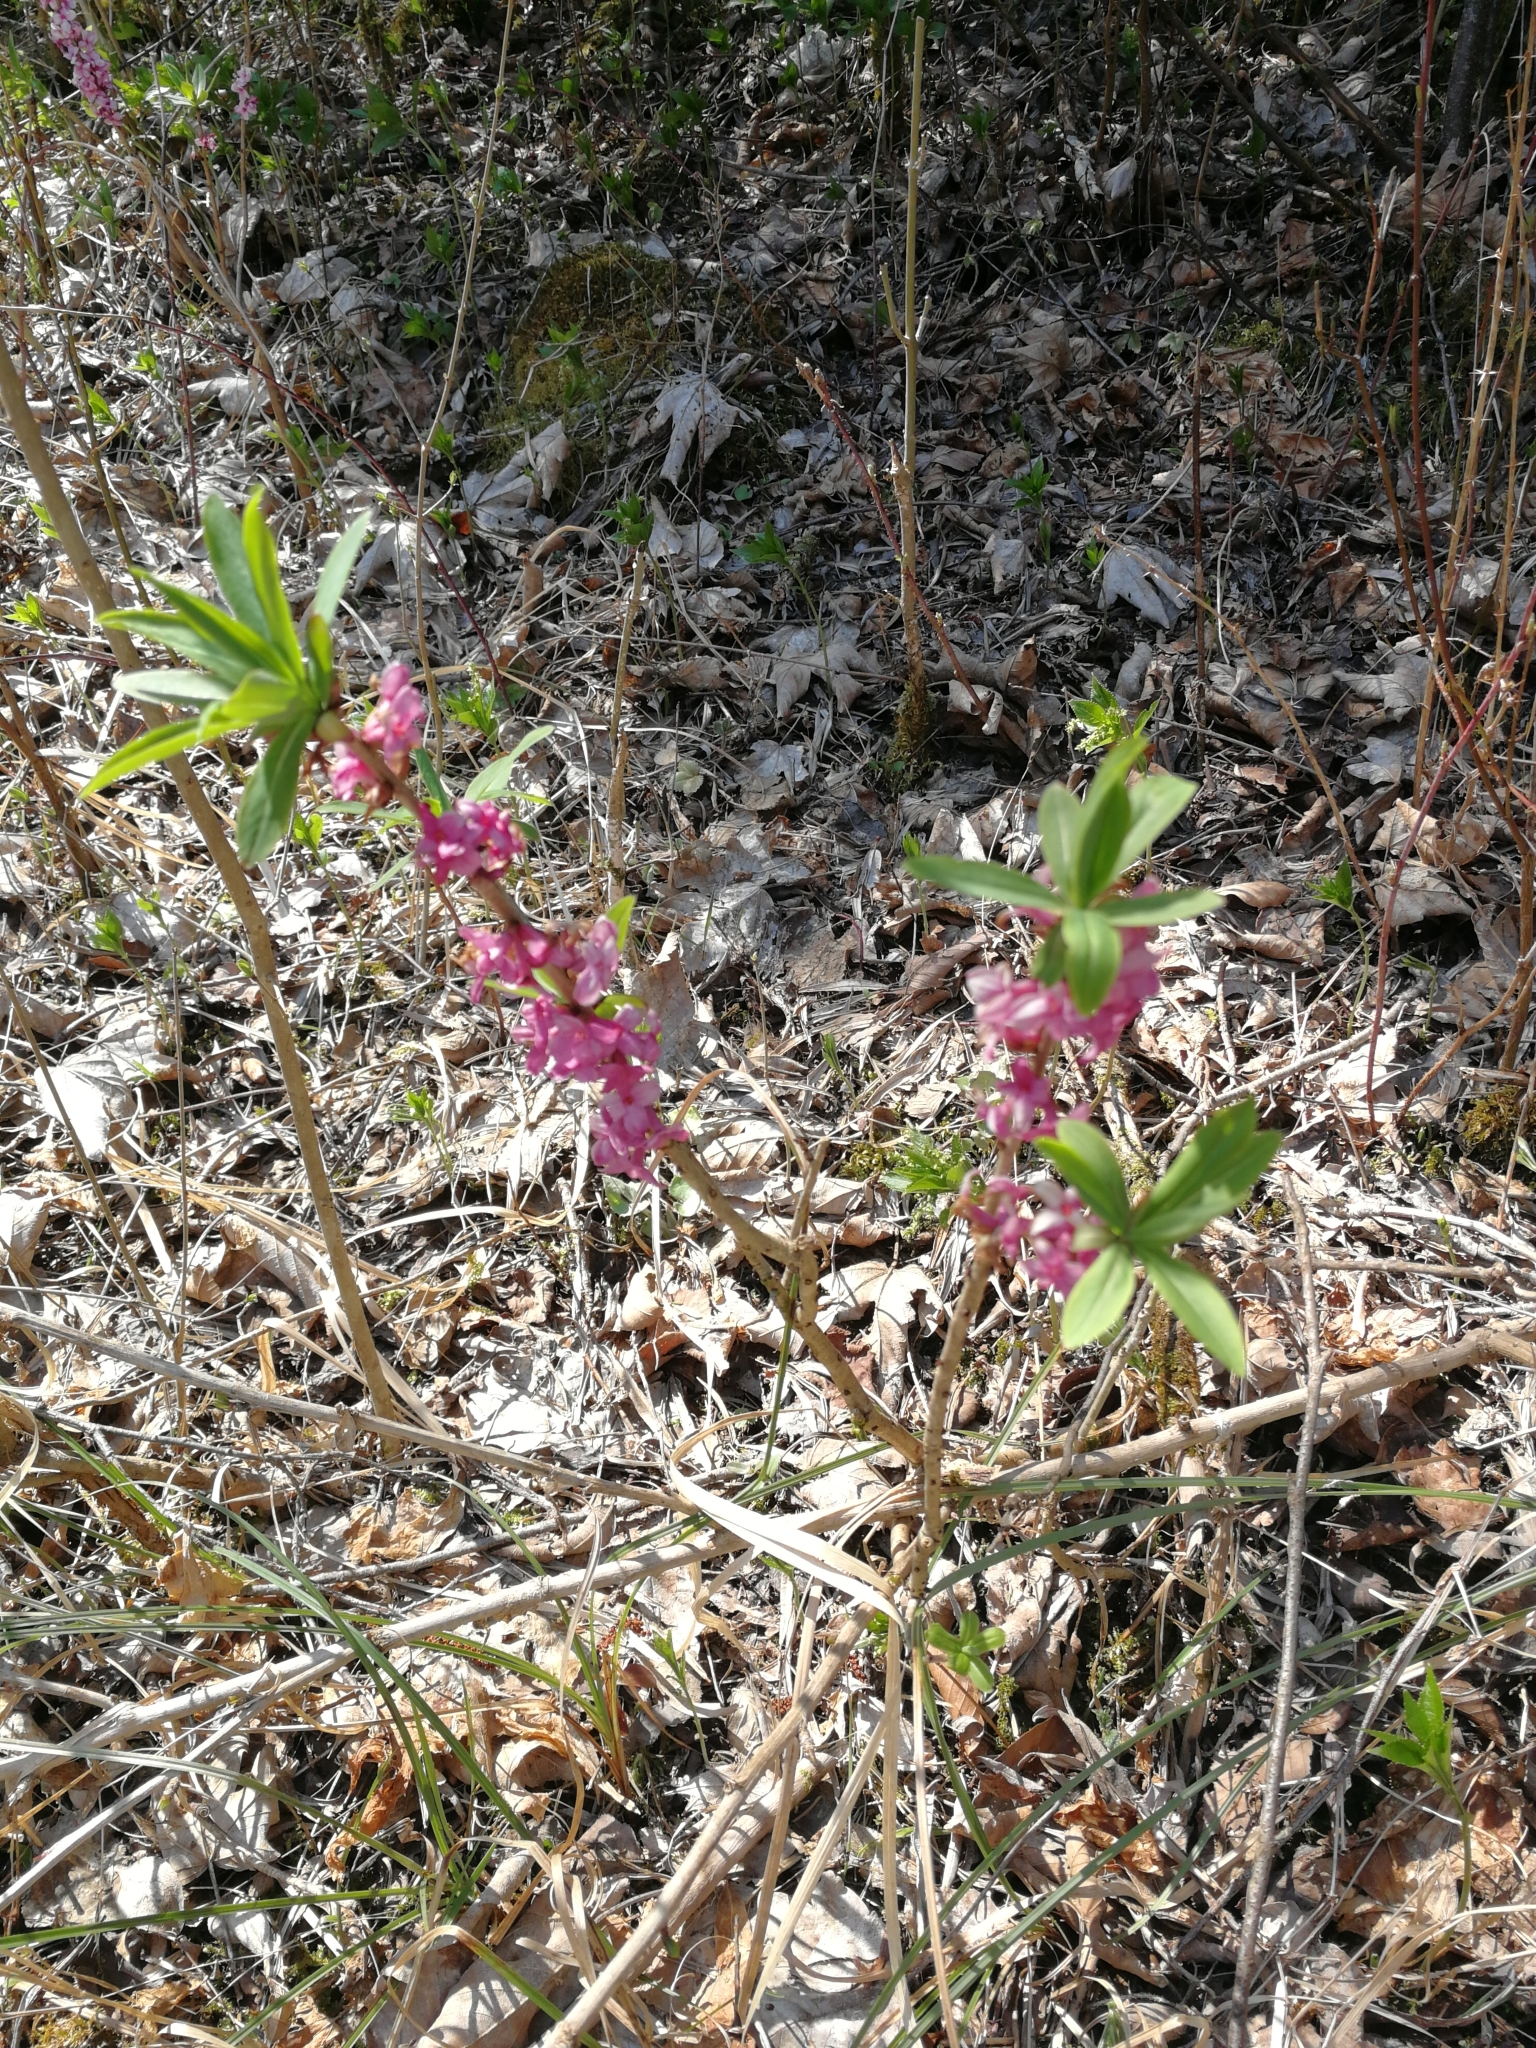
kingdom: Plantae
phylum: Tracheophyta
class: Magnoliopsida
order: Malvales
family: Thymelaeaceae
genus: Daphne
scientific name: Daphne mezereum
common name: Mezereon
